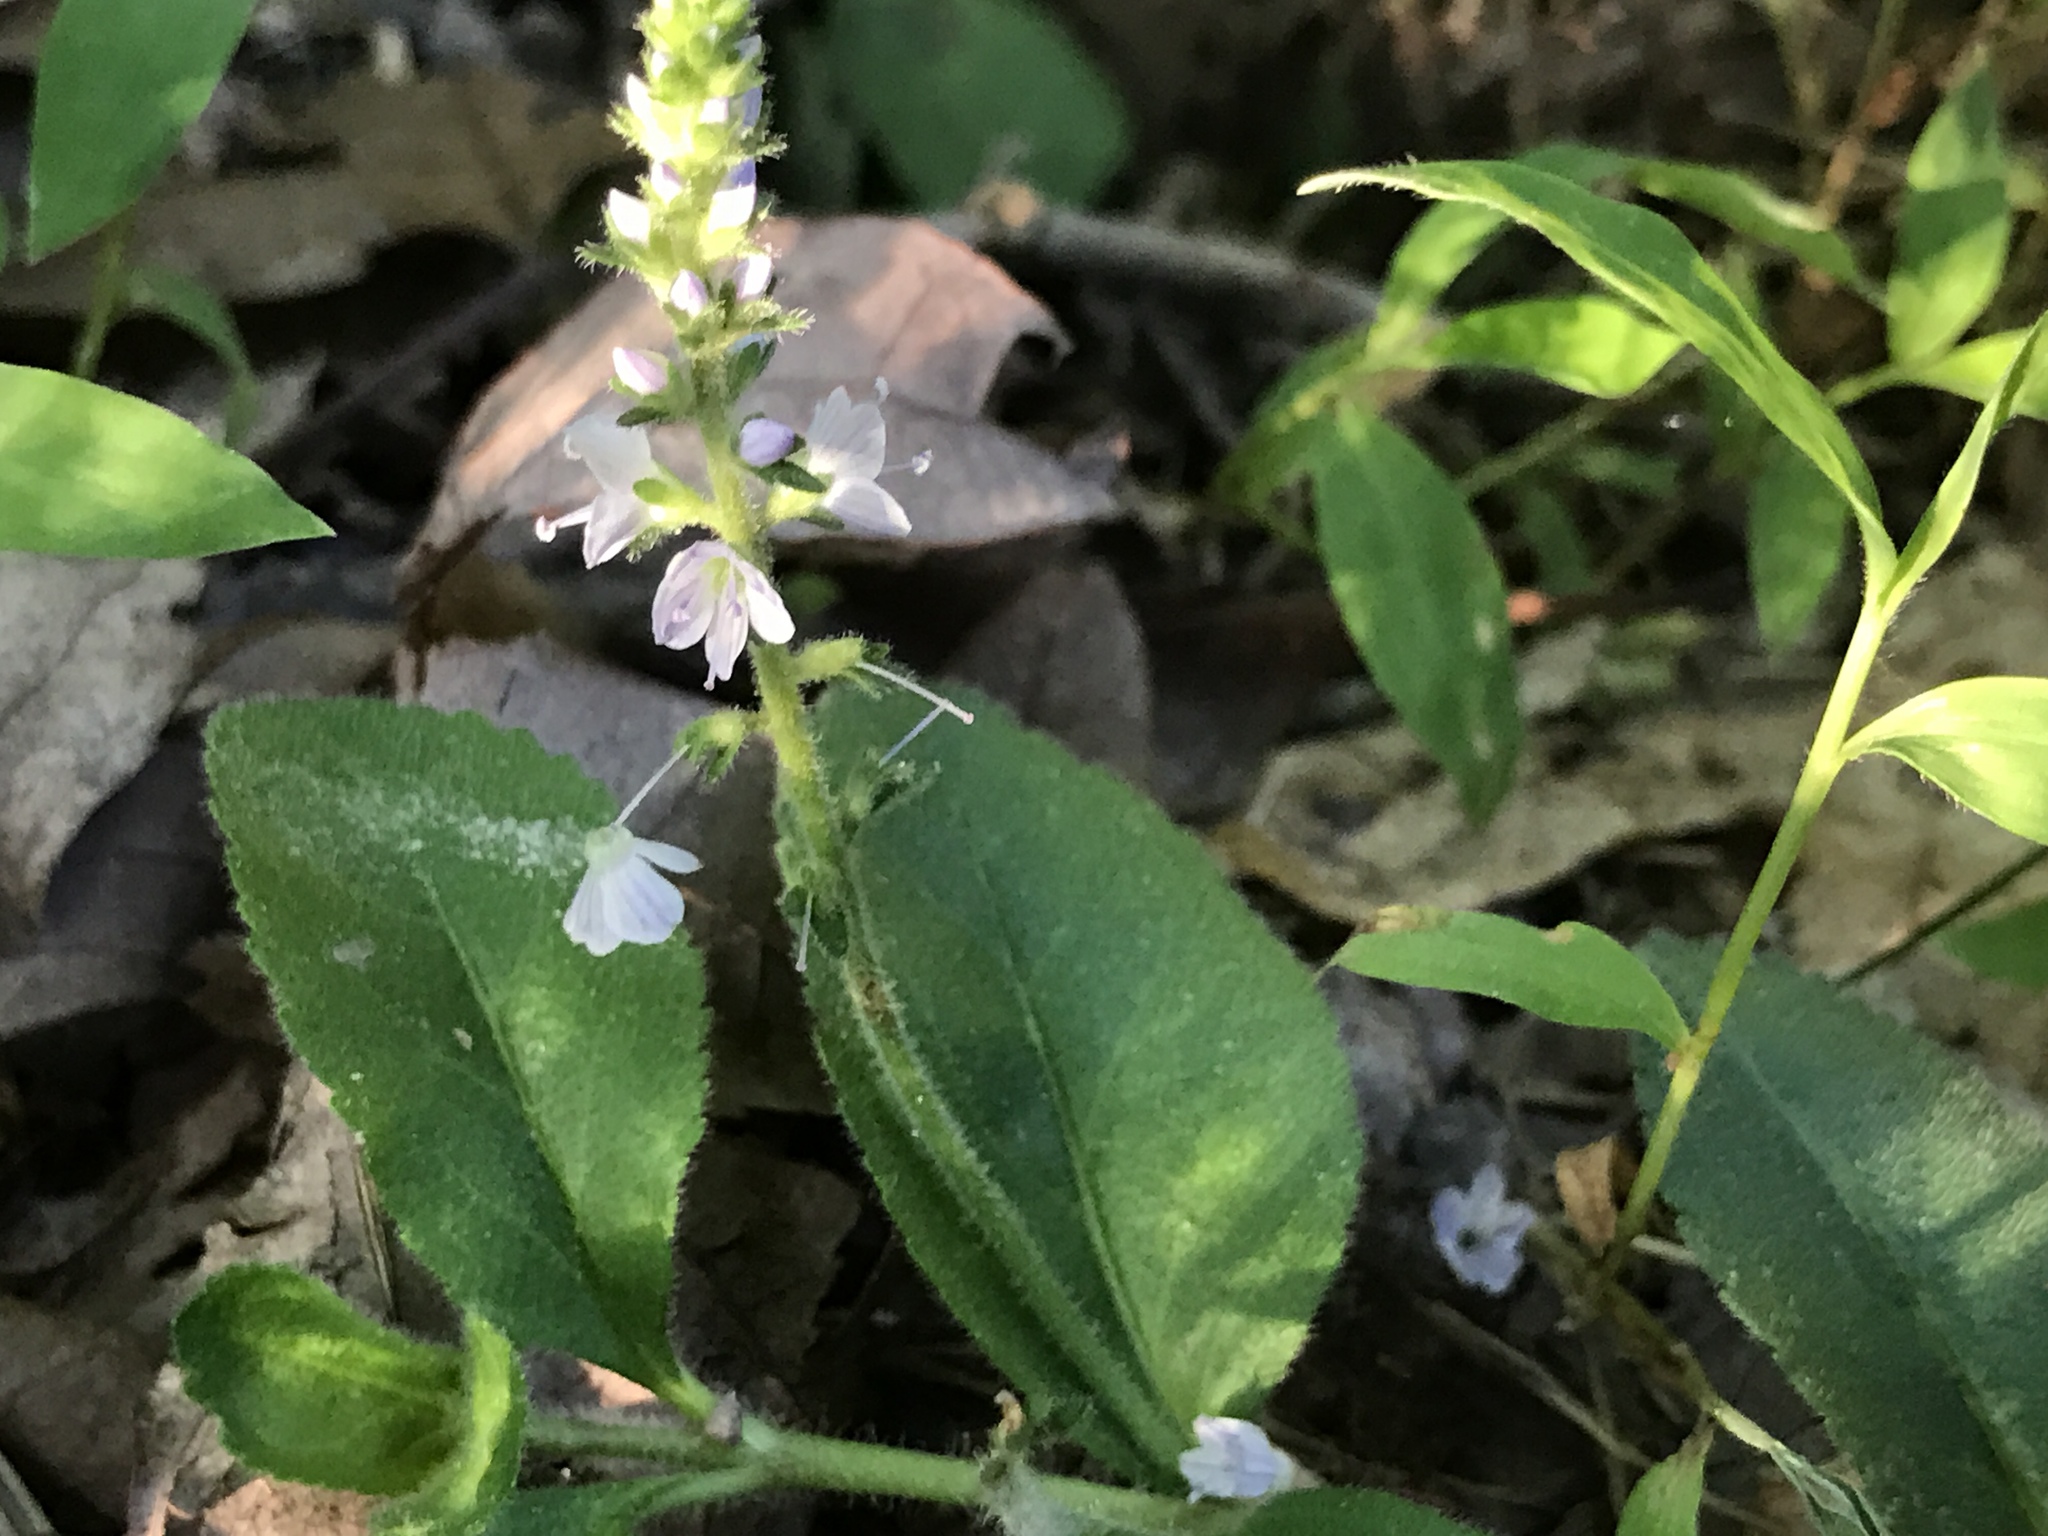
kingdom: Plantae
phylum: Tracheophyta
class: Magnoliopsida
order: Lamiales
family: Plantaginaceae
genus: Veronica
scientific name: Veronica officinalis
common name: Common speedwell
